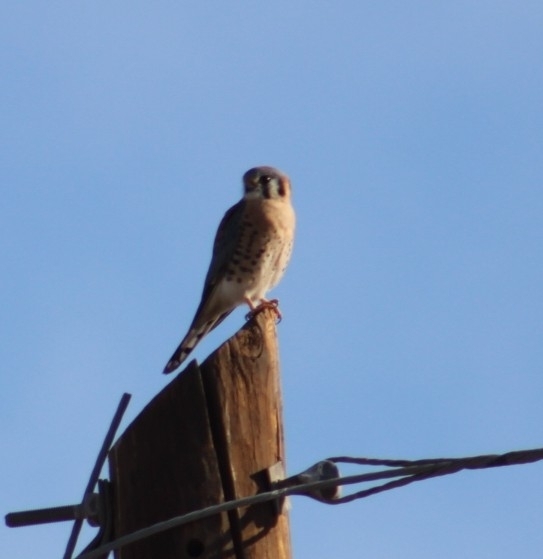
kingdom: Animalia
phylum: Chordata
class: Aves
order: Falconiformes
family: Falconidae
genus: Falco
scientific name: Falco sparverius
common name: American kestrel
